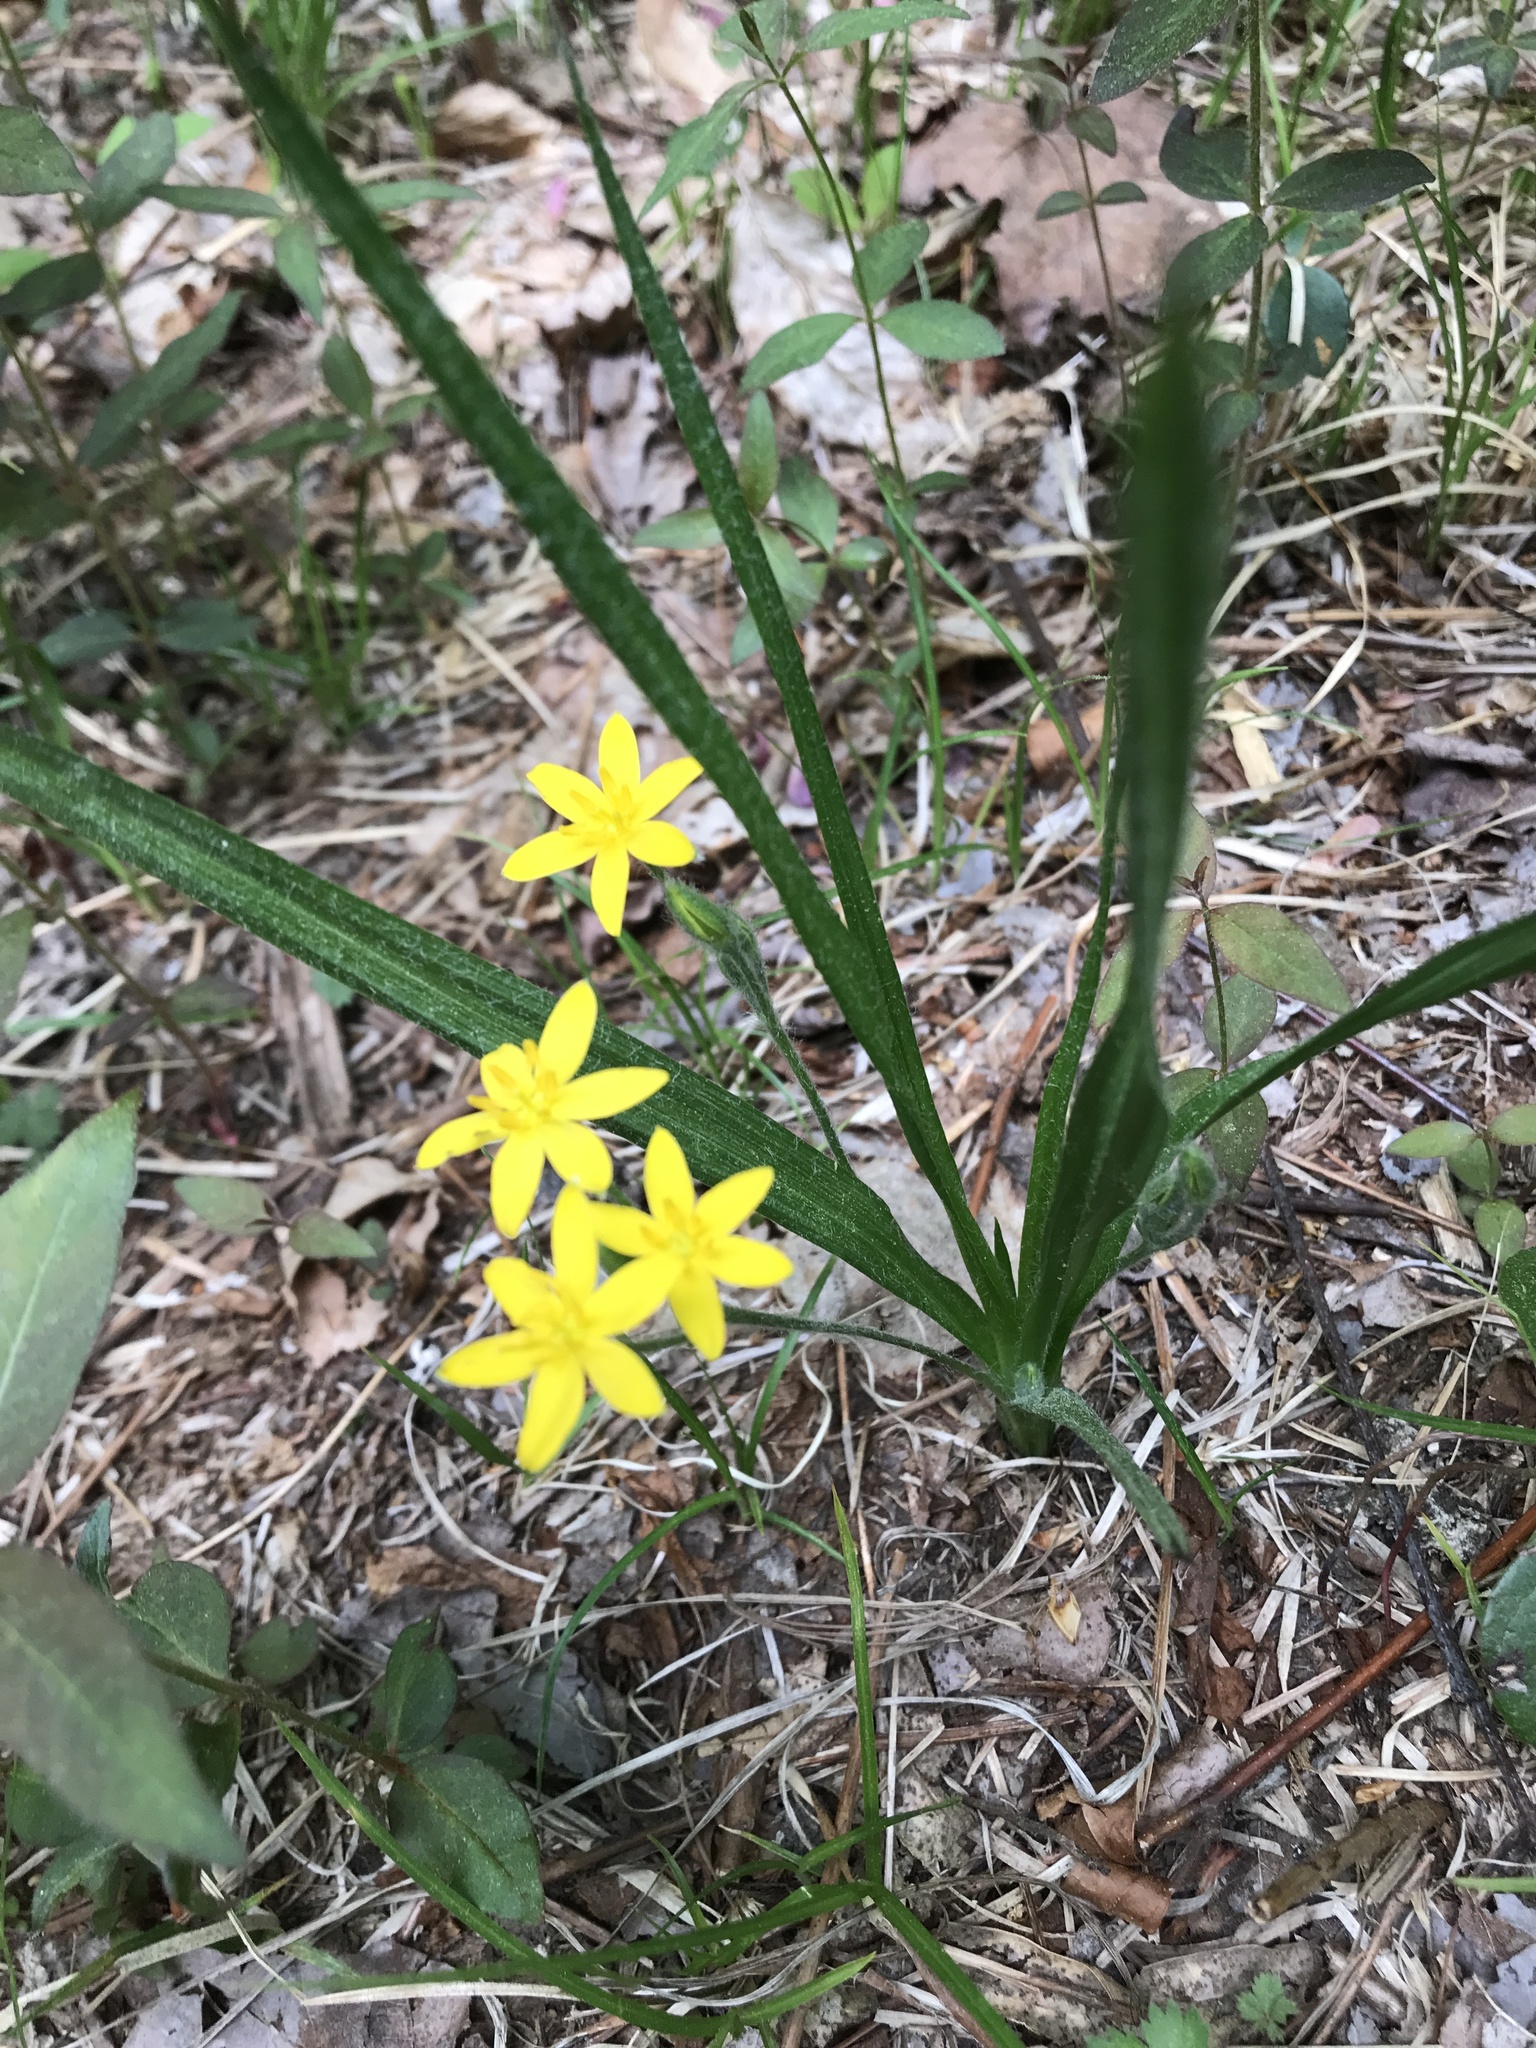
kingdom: Plantae
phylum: Tracheophyta
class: Liliopsida
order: Asparagales
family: Hypoxidaceae
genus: Hypoxis
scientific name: Hypoxis hirsuta
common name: Common goldstar
